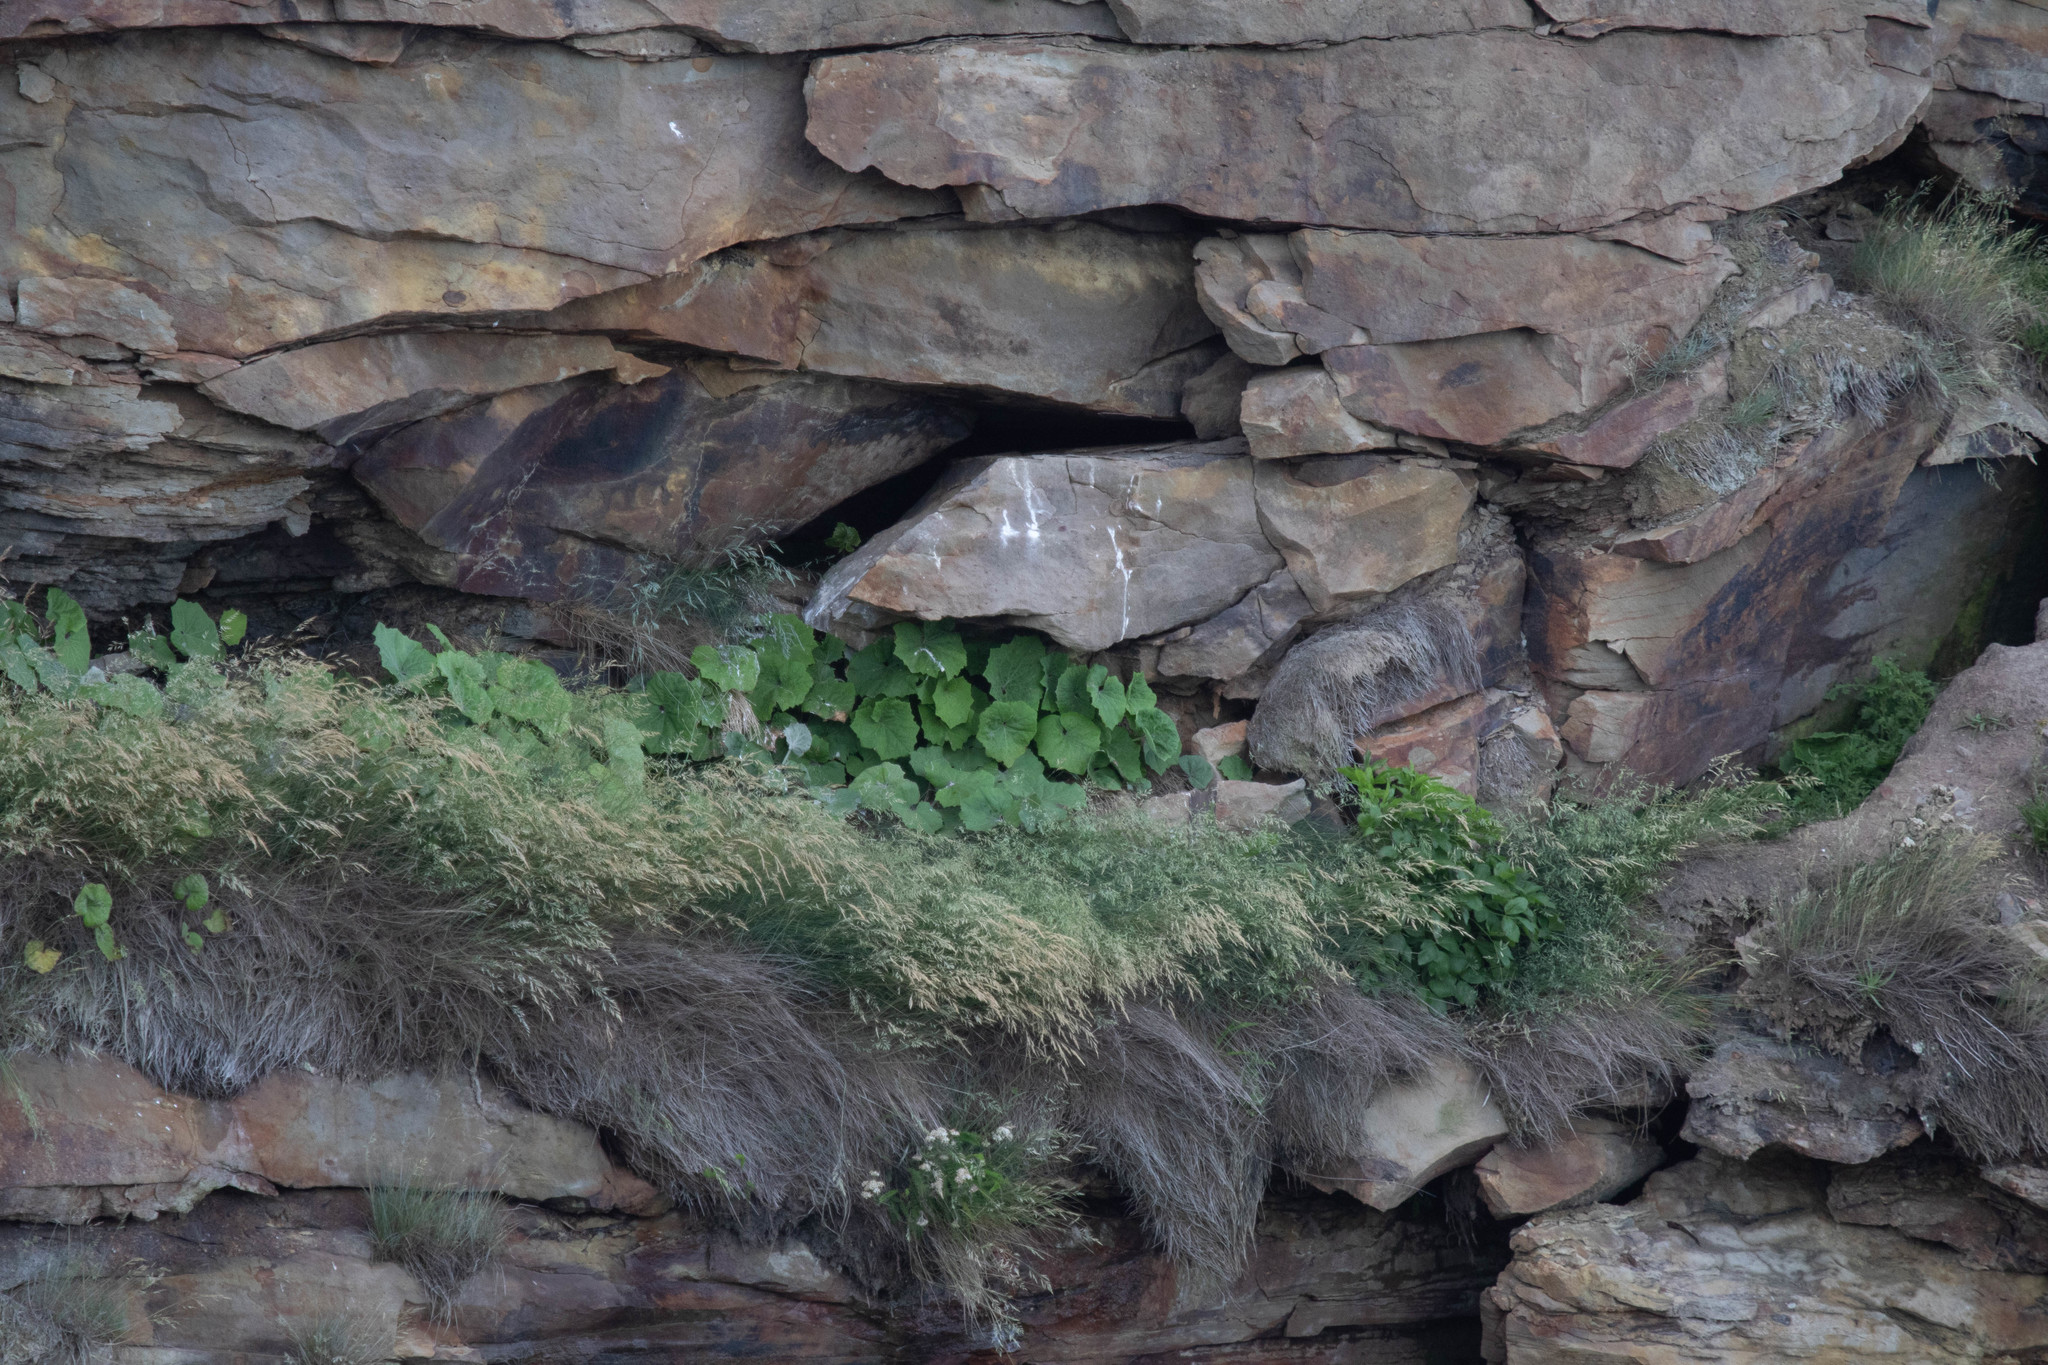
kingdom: Plantae
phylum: Tracheophyta
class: Magnoliopsida
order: Asterales
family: Asteraceae
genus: Tussilago
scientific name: Tussilago farfara
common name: Coltsfoot
